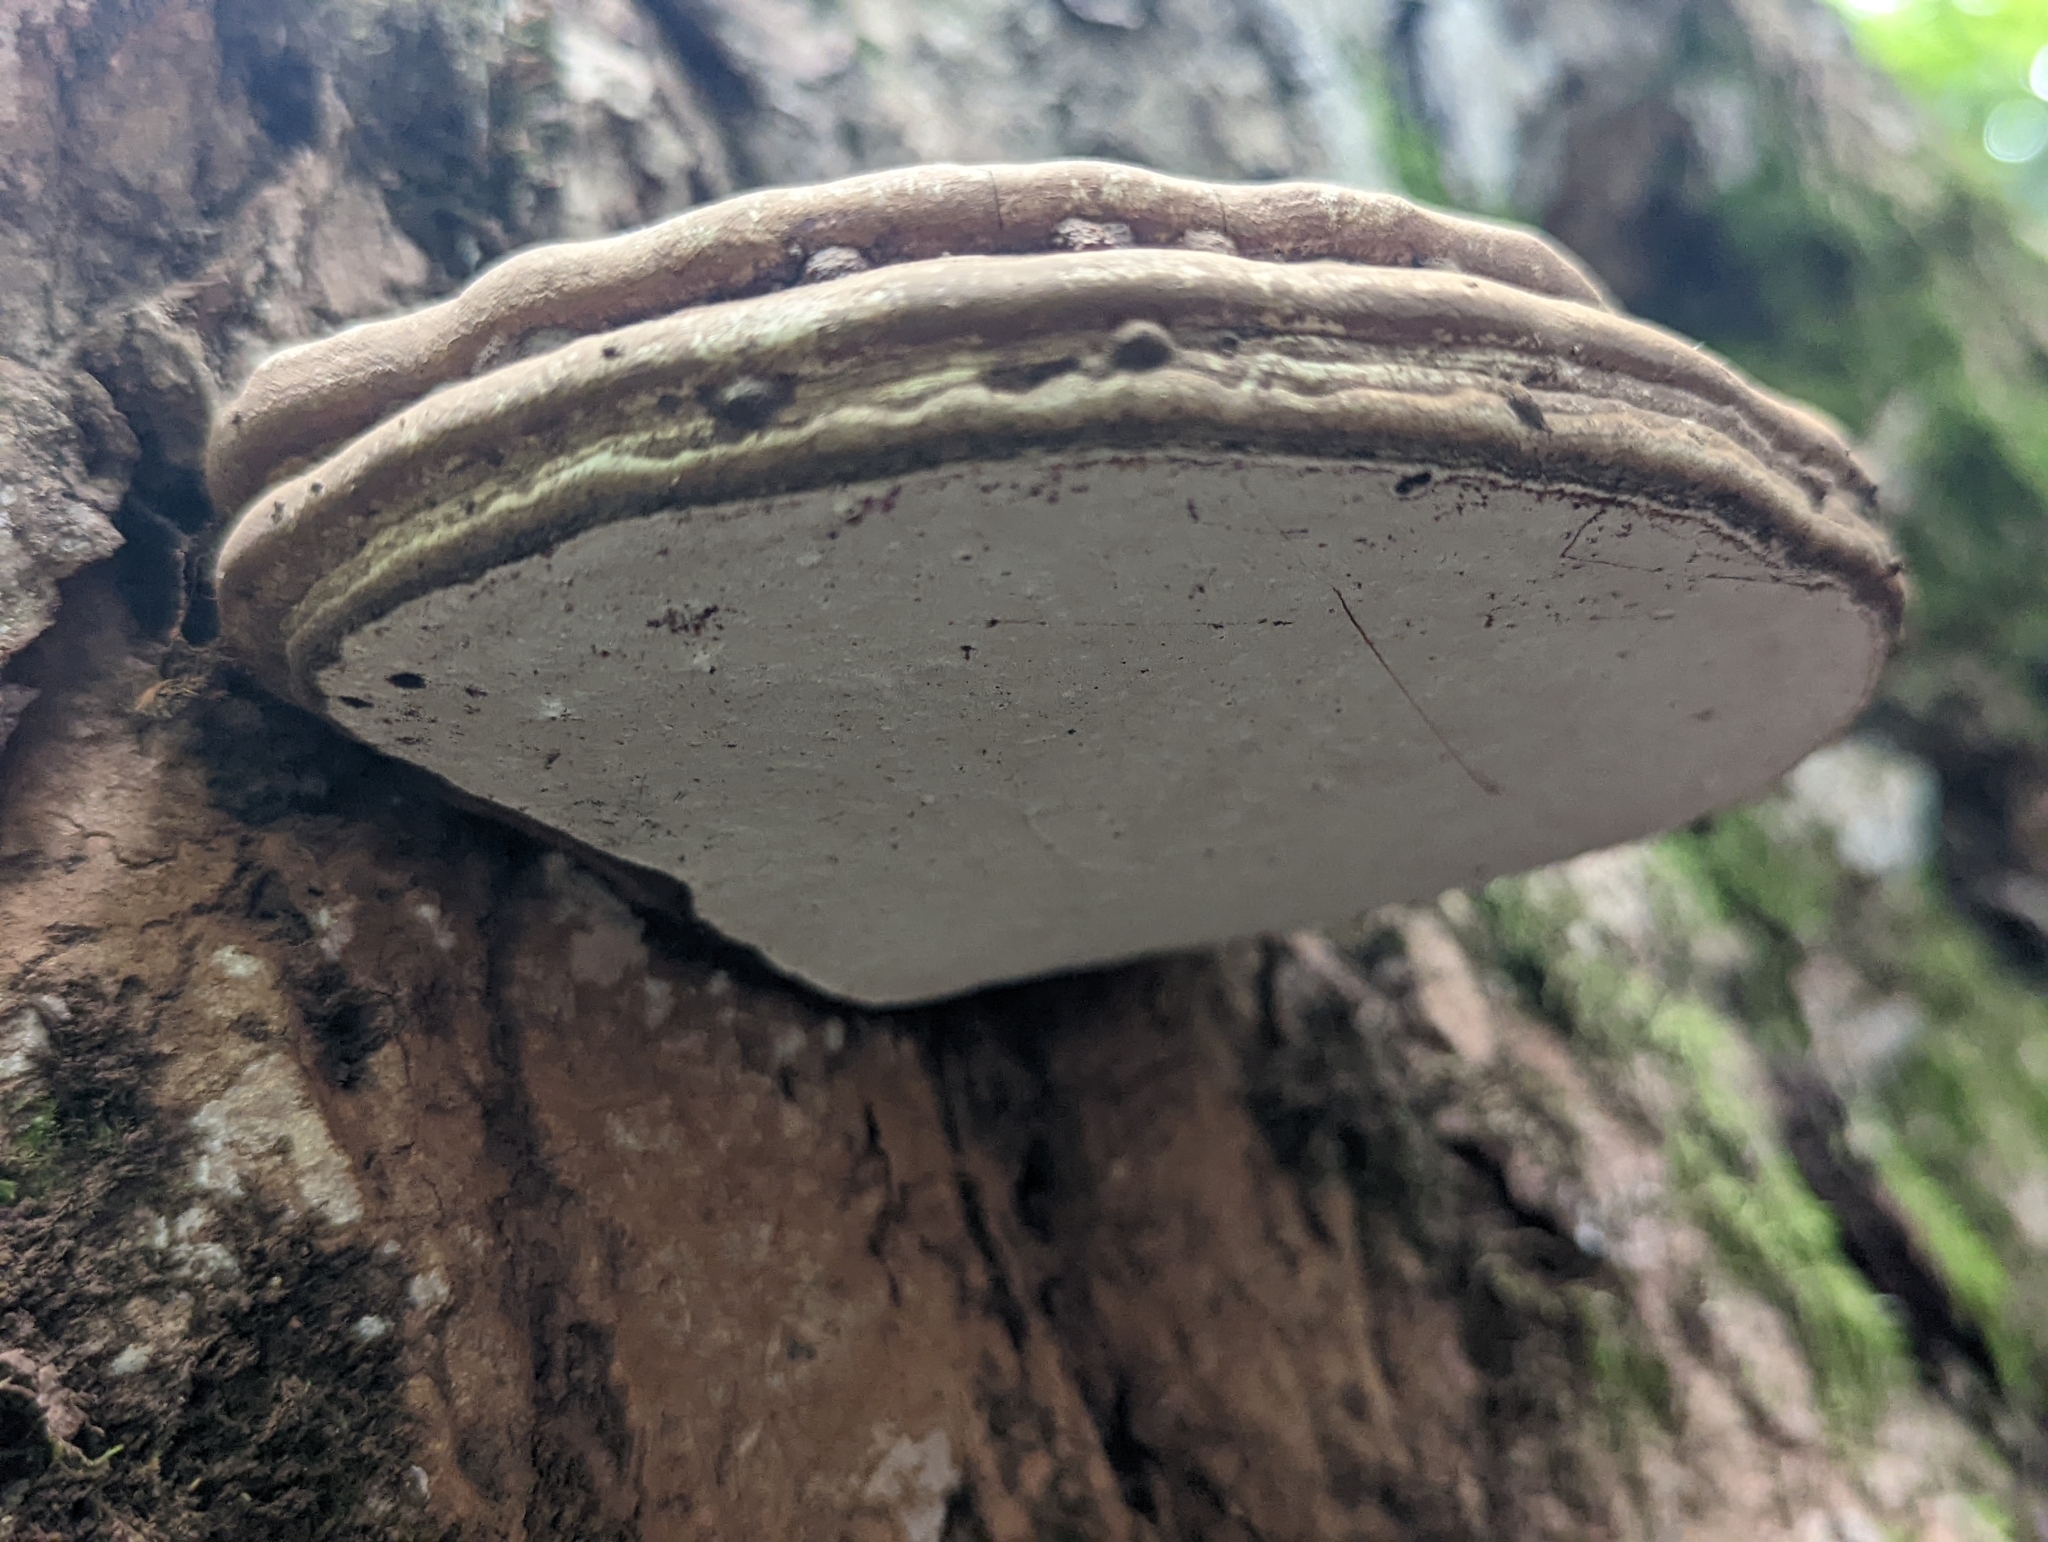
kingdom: Fungi
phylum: Basidiomycota
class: Agaricomycetes
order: Polyporales
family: Polyporaceae
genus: Ganoderma
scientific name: Ganoderma applanatum
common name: Artist's bracket
